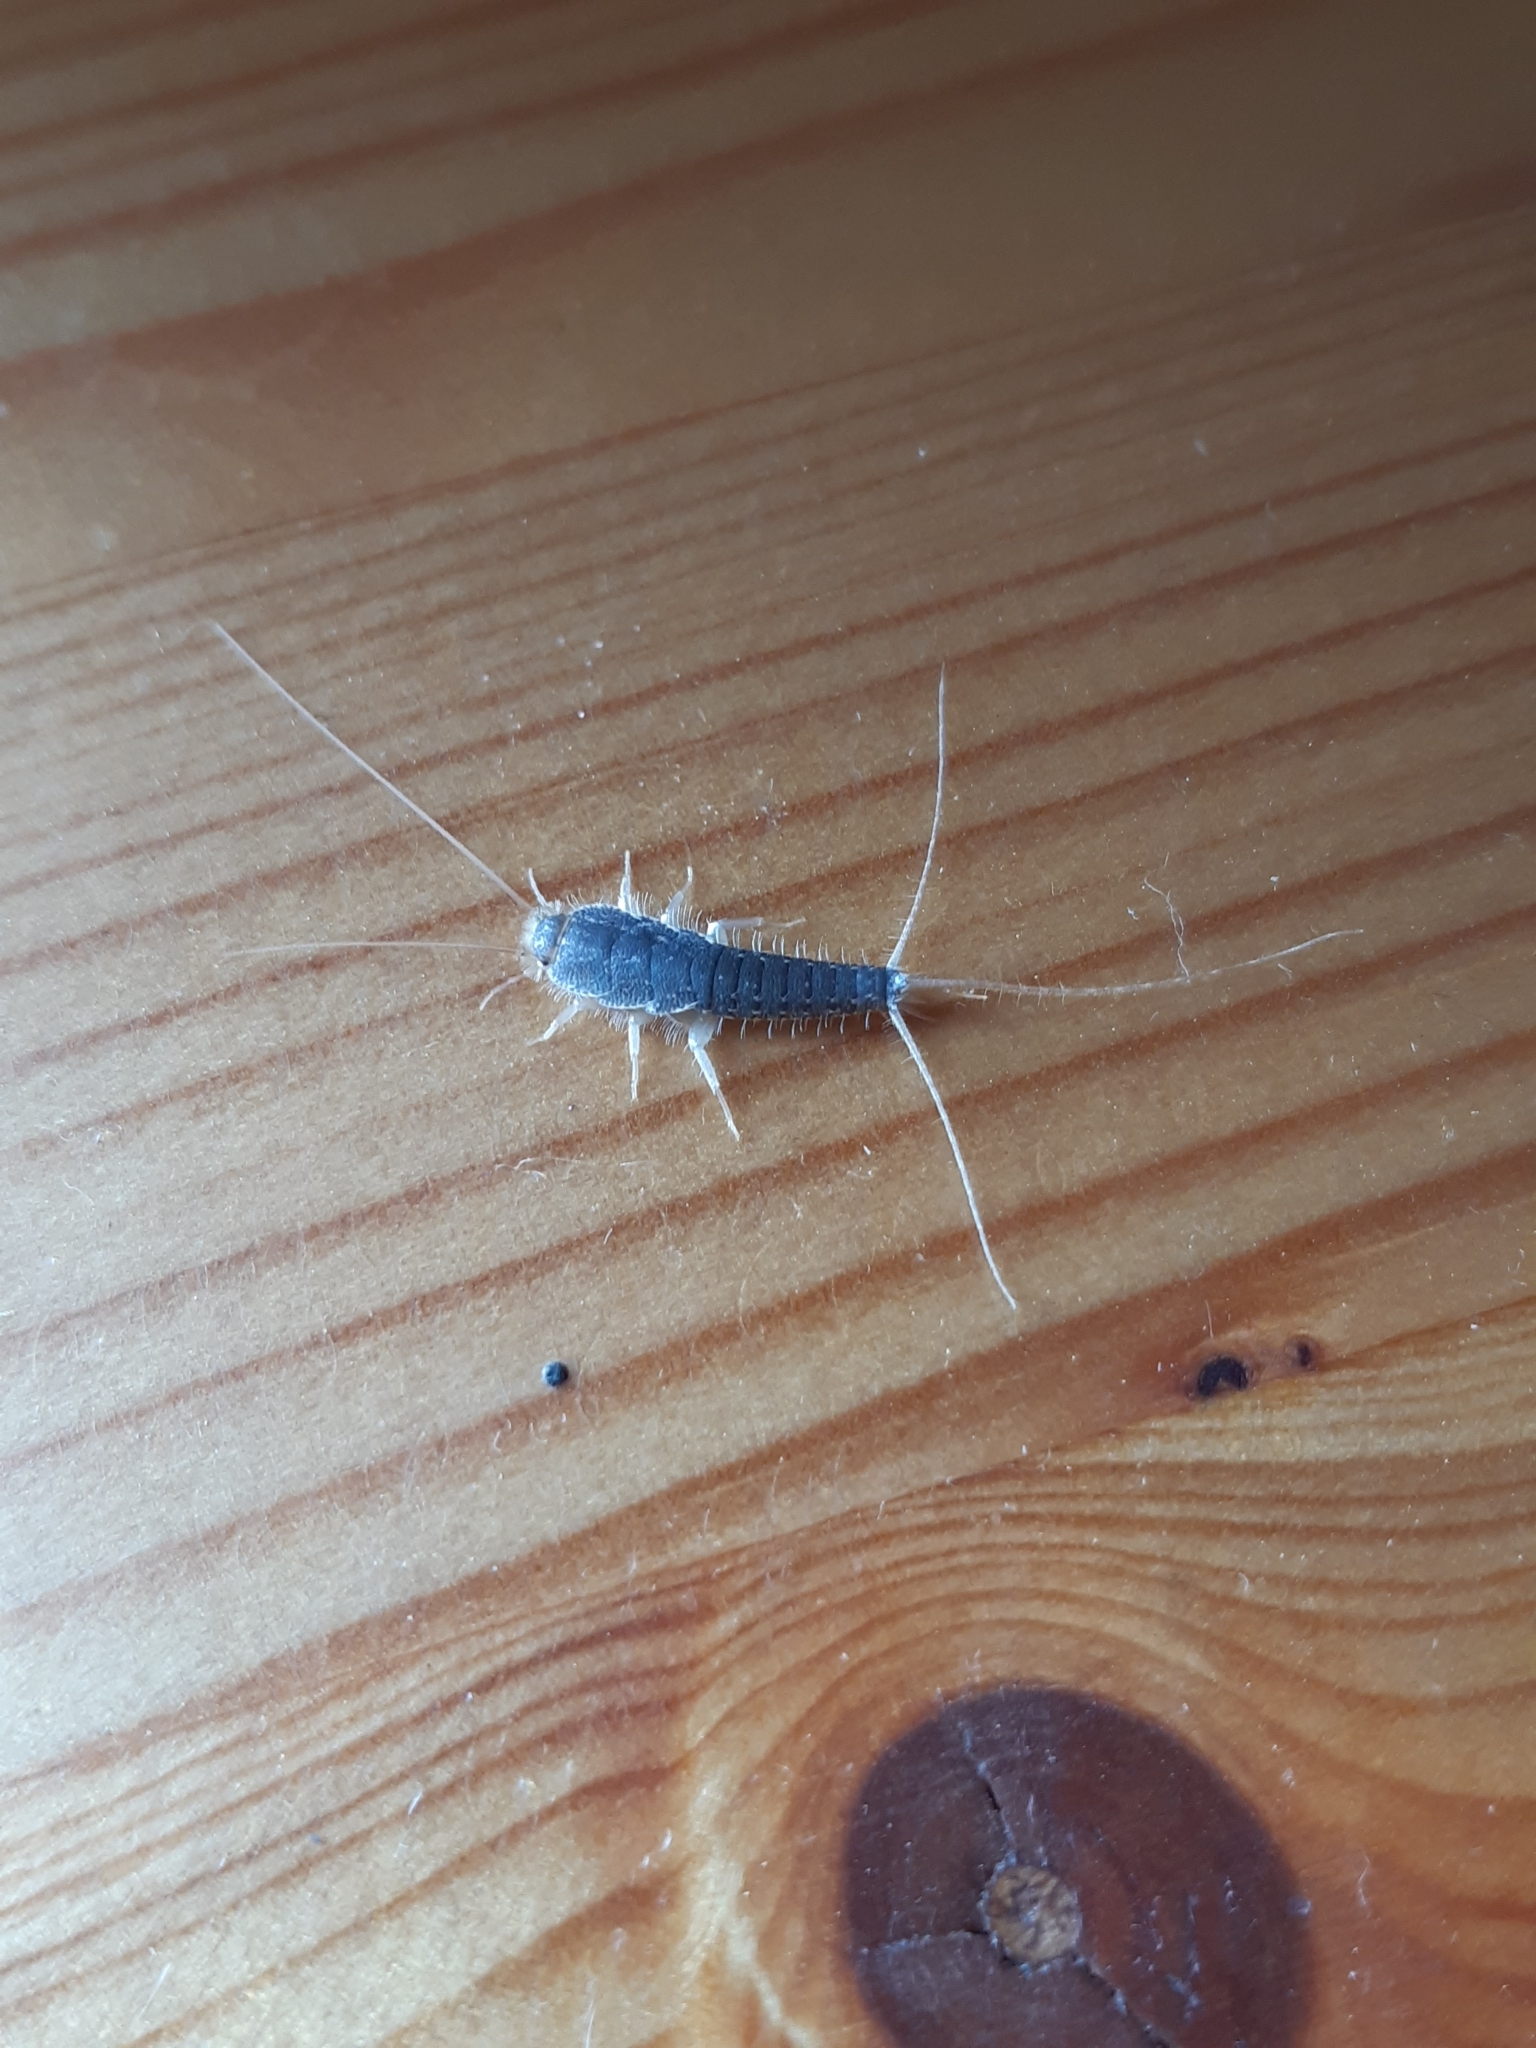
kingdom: Animalia
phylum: Arthropoda
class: Insecta
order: Zygentoma
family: Lepismatidae
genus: Ctenolepisma
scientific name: Ctenolepisma longicaudatum
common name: Silverfish
